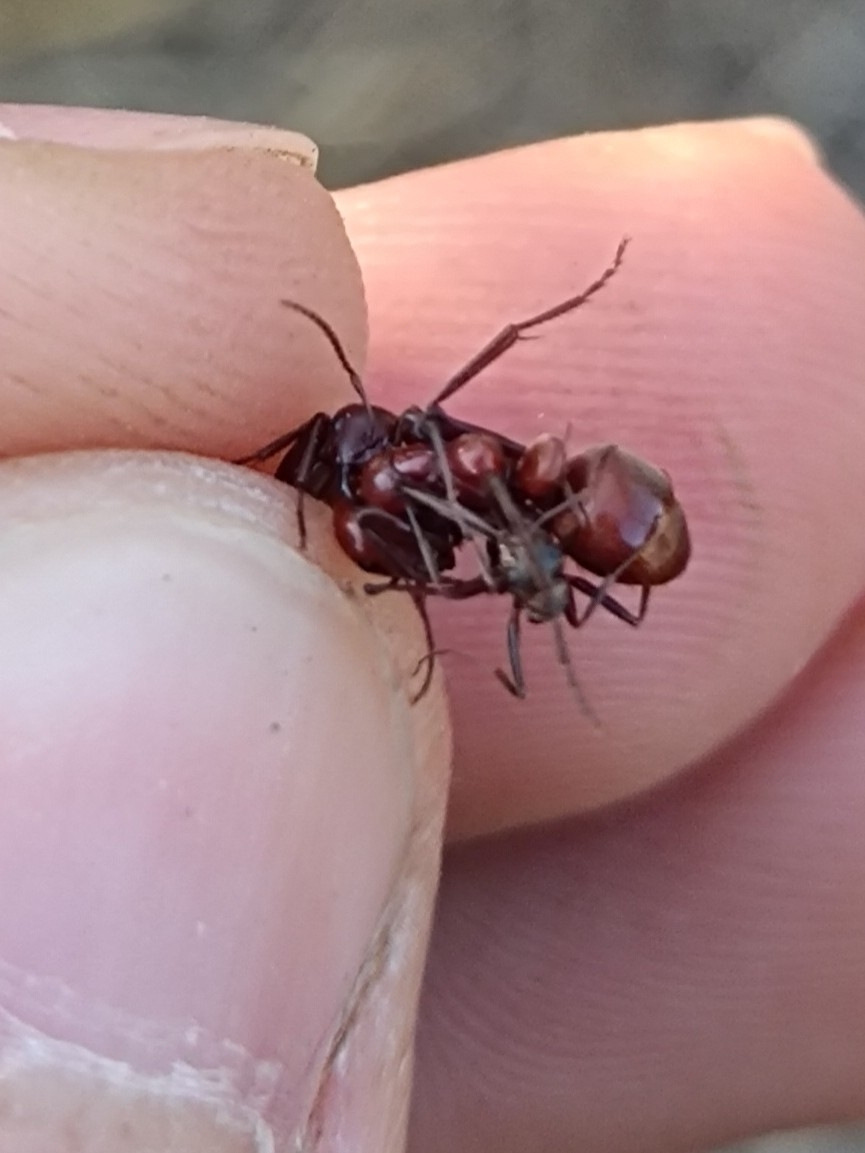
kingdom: Animalia
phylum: Arthropoda
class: Insecta
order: Hymenoptera
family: Formicidae
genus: Polyergus
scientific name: Polyergus rufescens
